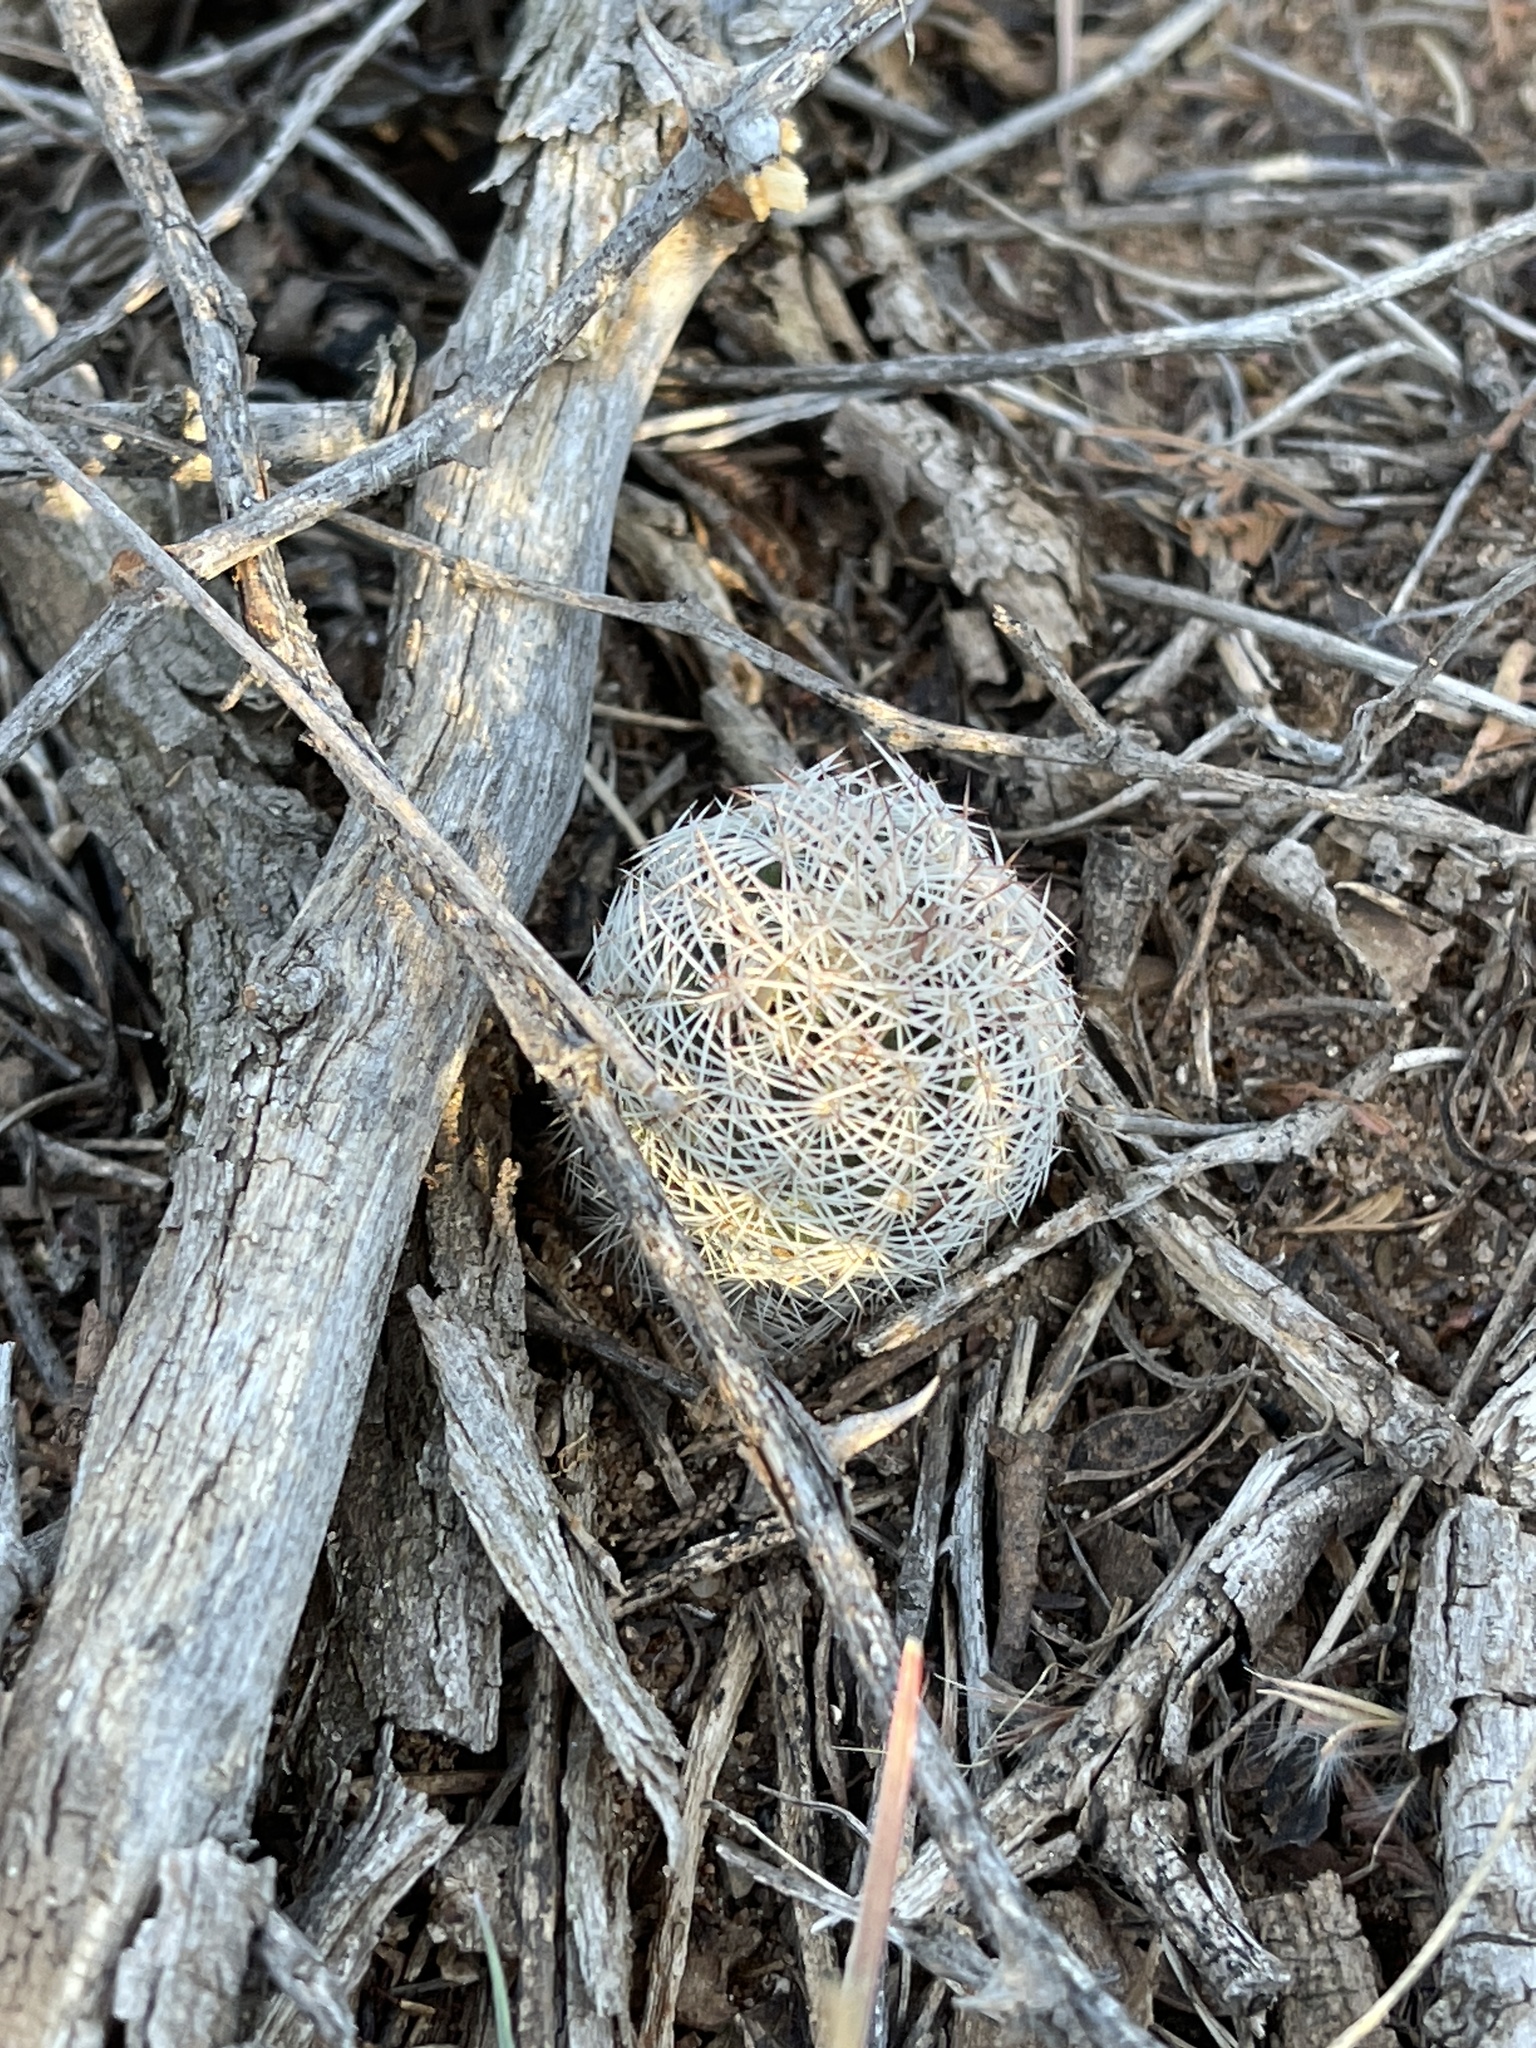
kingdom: Plantae
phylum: Tracheophyta
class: Magnoliopsida
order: Caryophyllales
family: Cactaceae
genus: Echinocereus
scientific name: Echinocereus reichenbachii
